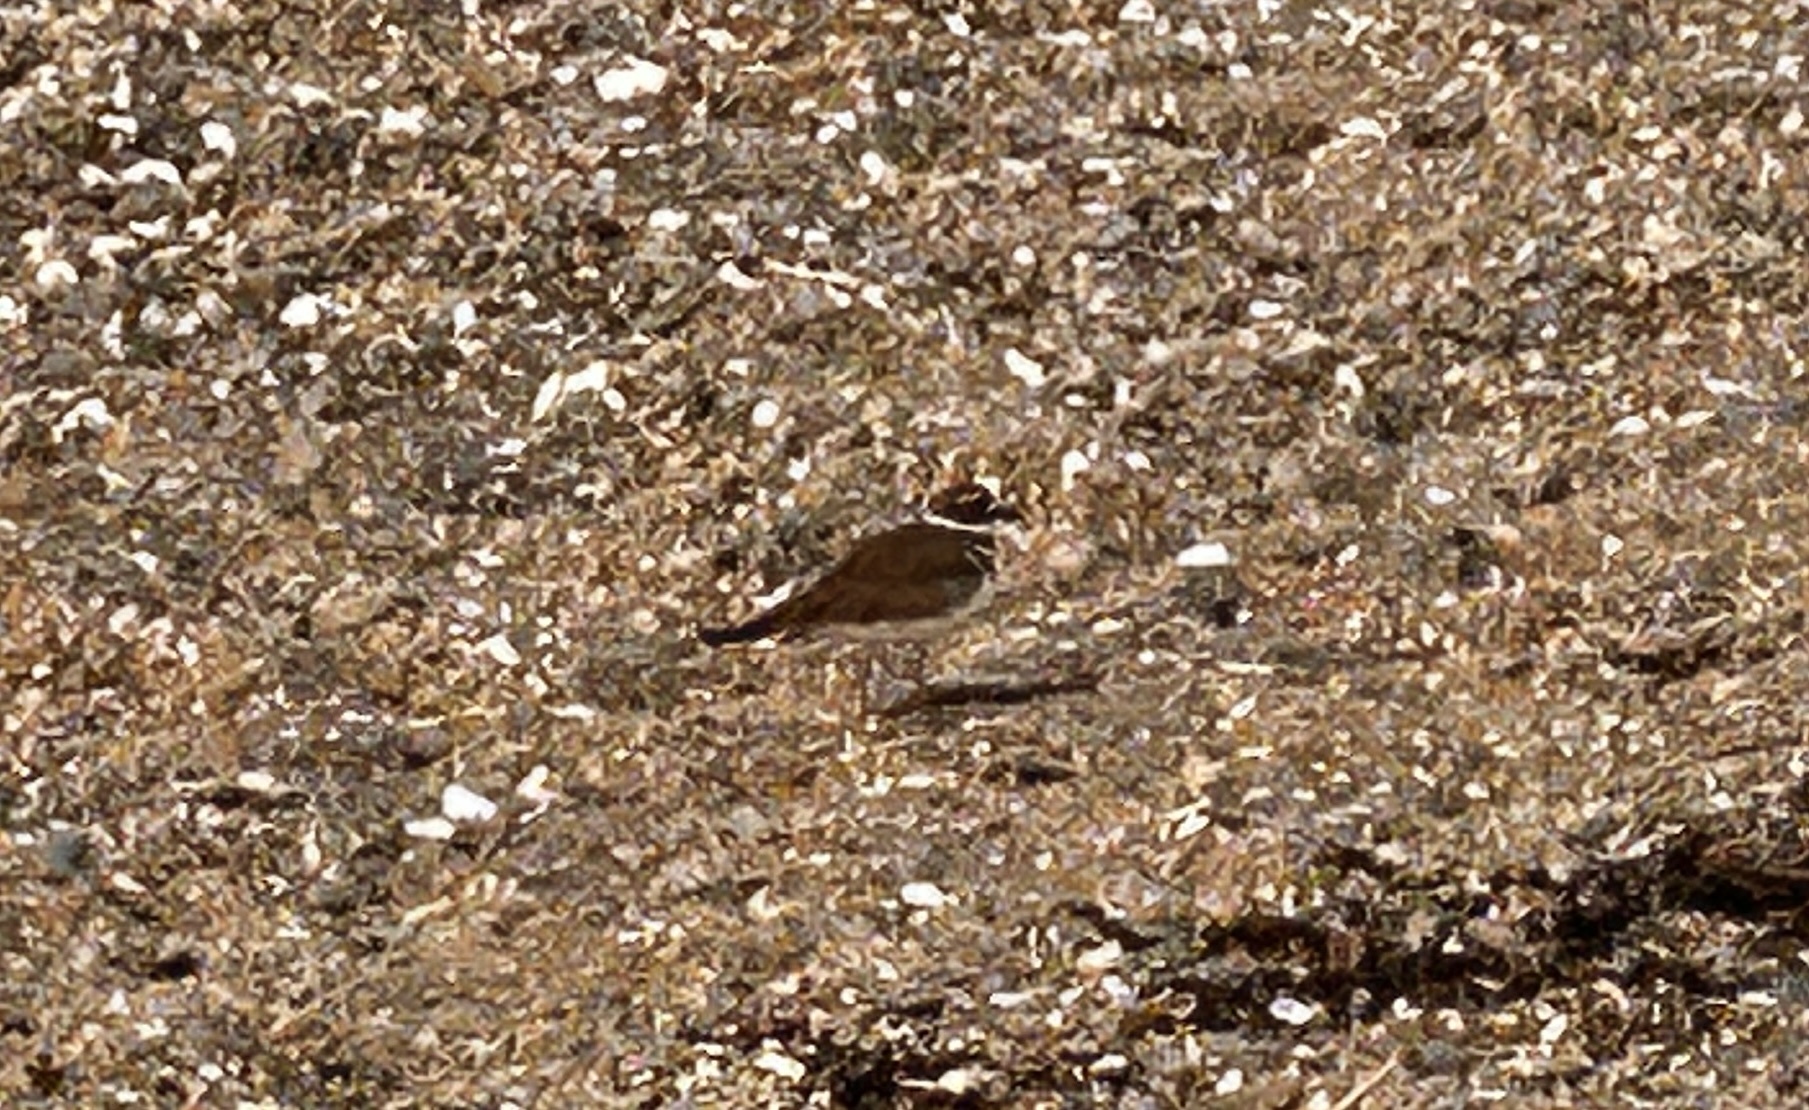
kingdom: Animalia
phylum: Chordata
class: Aves
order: Charadriiformes
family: Charadriidae
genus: Charadrius
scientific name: Charadrius vociferus
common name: Killdeer
